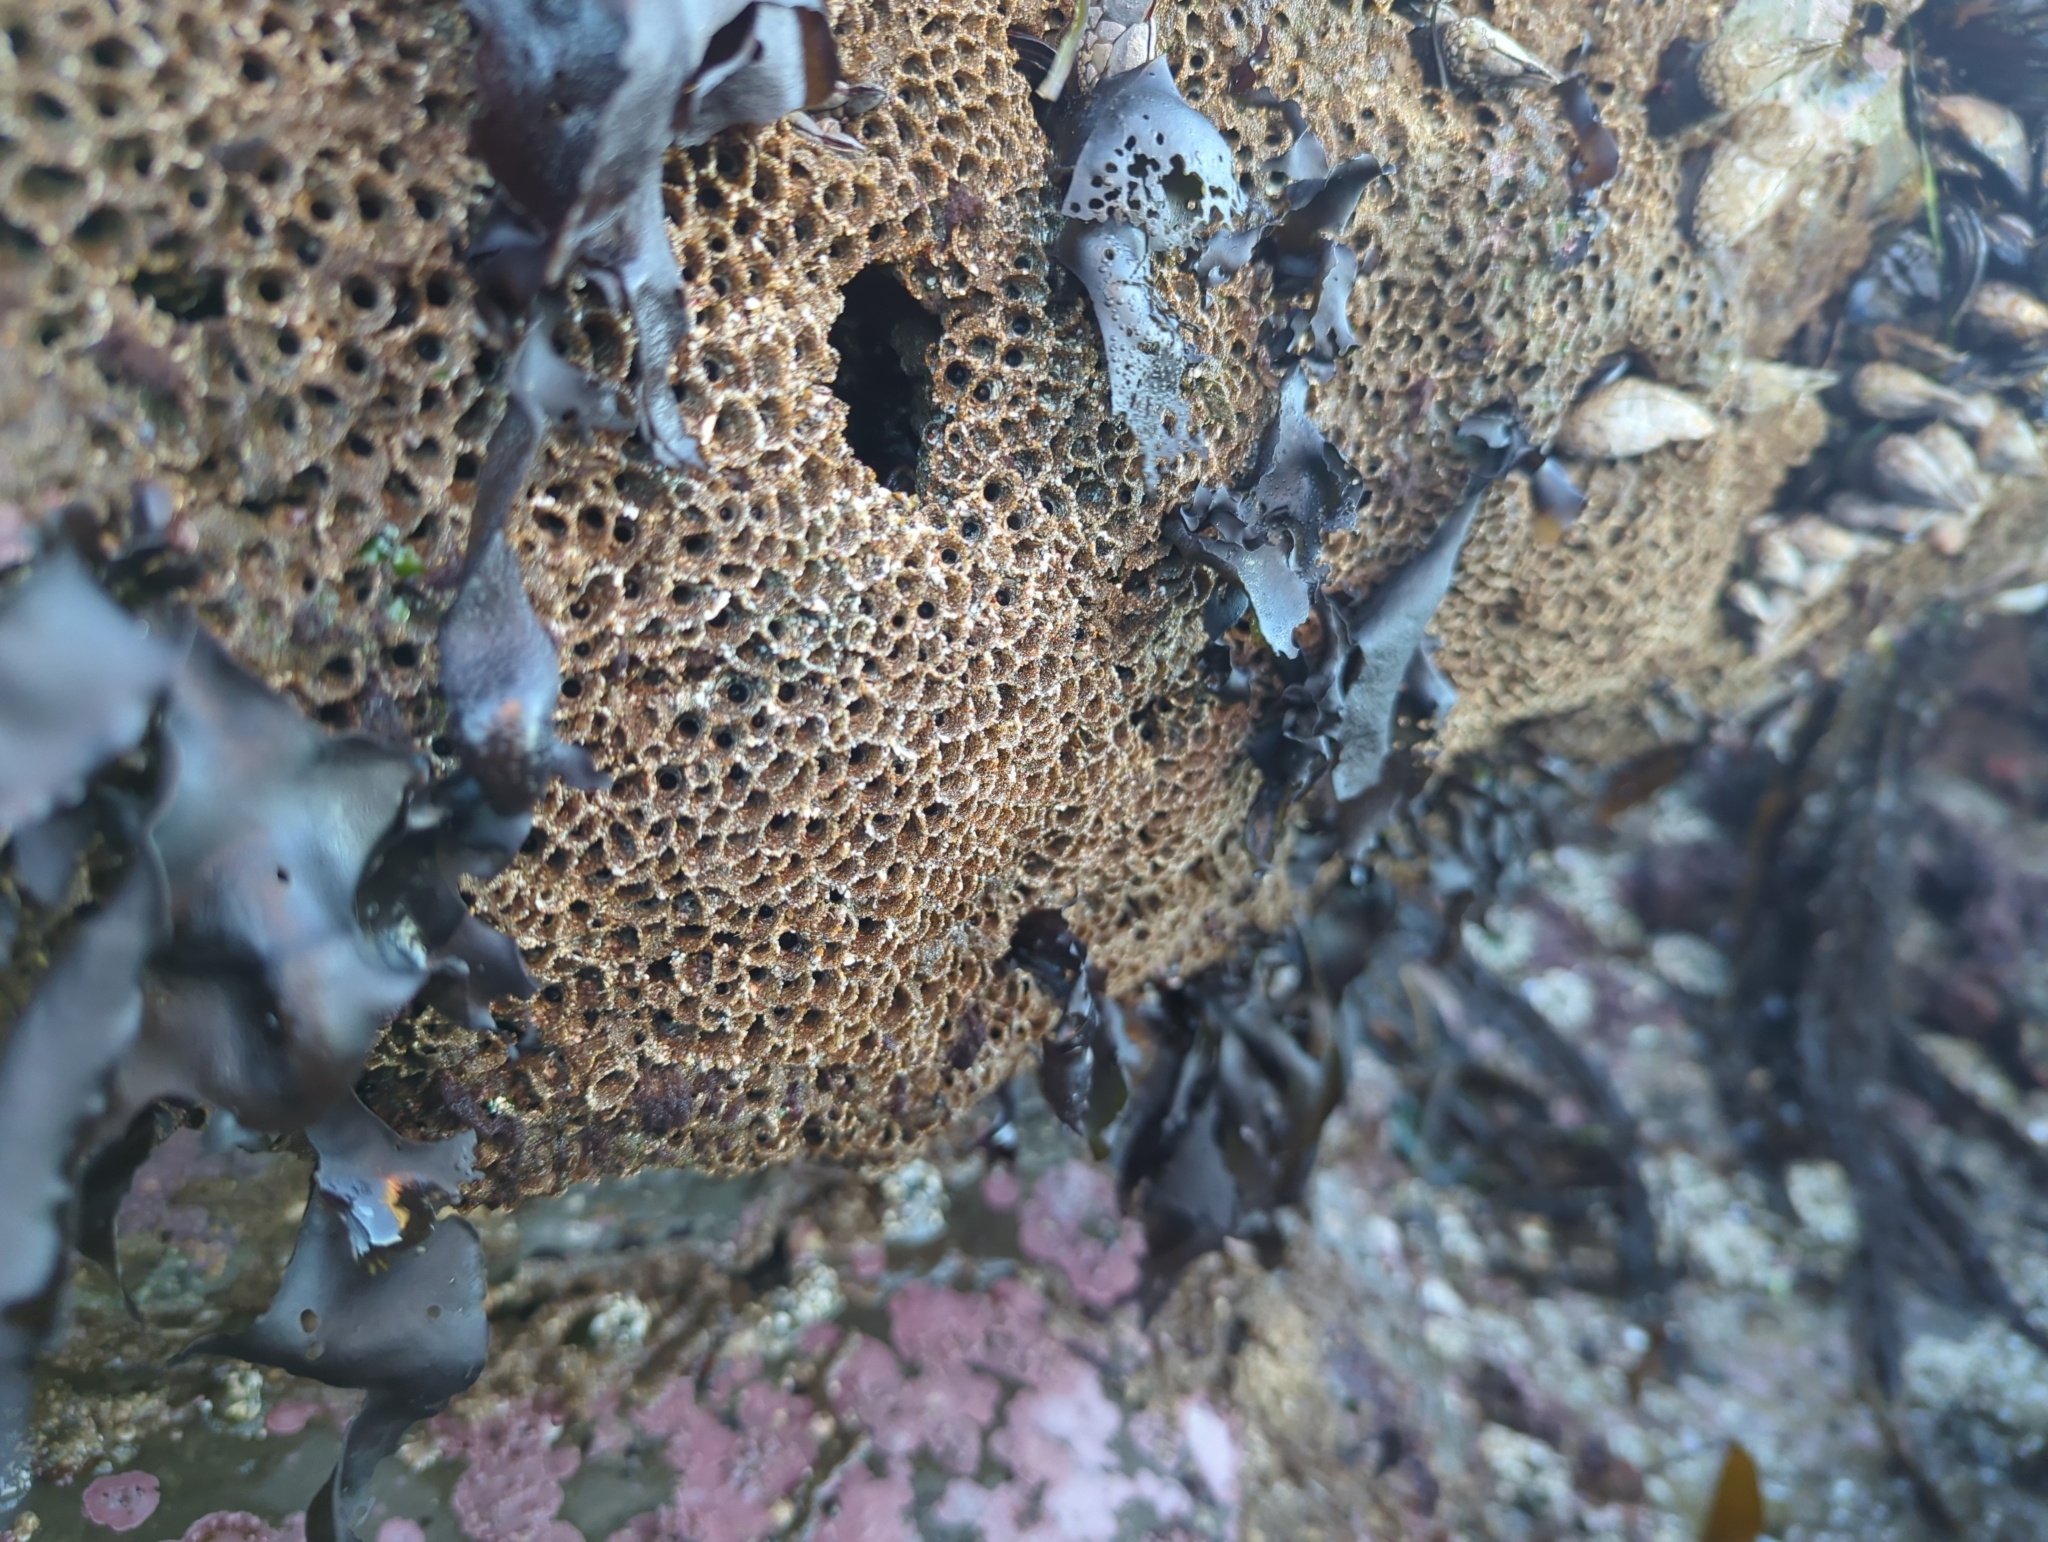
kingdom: Animalia
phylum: Annelida
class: Polychaeta
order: Sabellida
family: Sabellariidae
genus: Phragmatopoma
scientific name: Phragmatopoma californica
